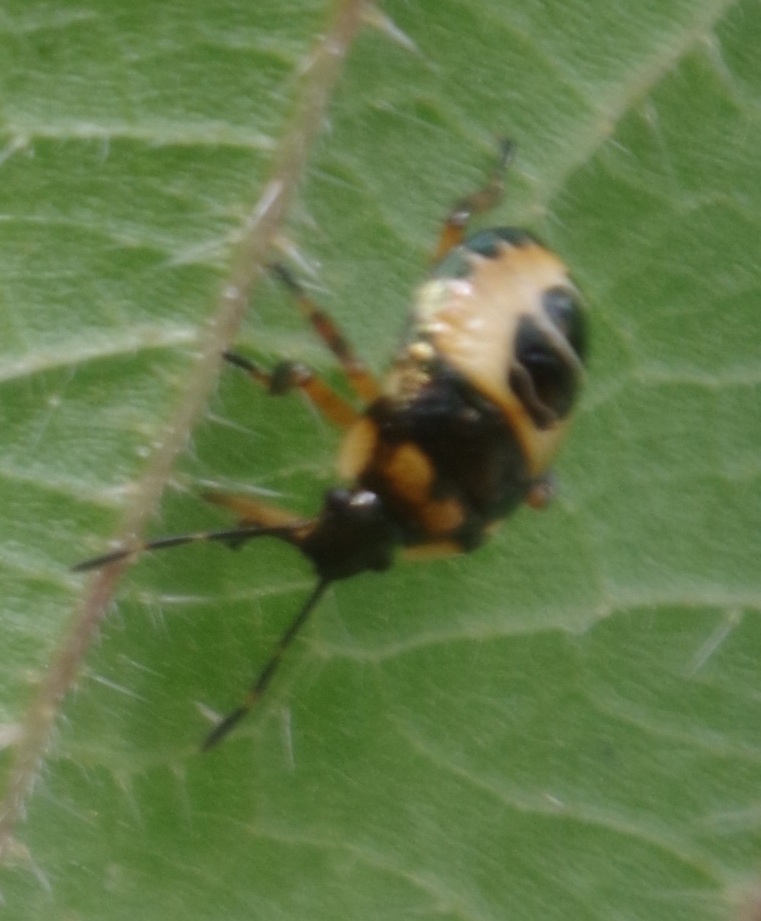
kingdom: Animalia
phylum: Arthropoda
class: Insecta
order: Hemiptera
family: Pentatomidae
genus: Troilus
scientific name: Troilus luridus
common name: Bronze shieldbug
